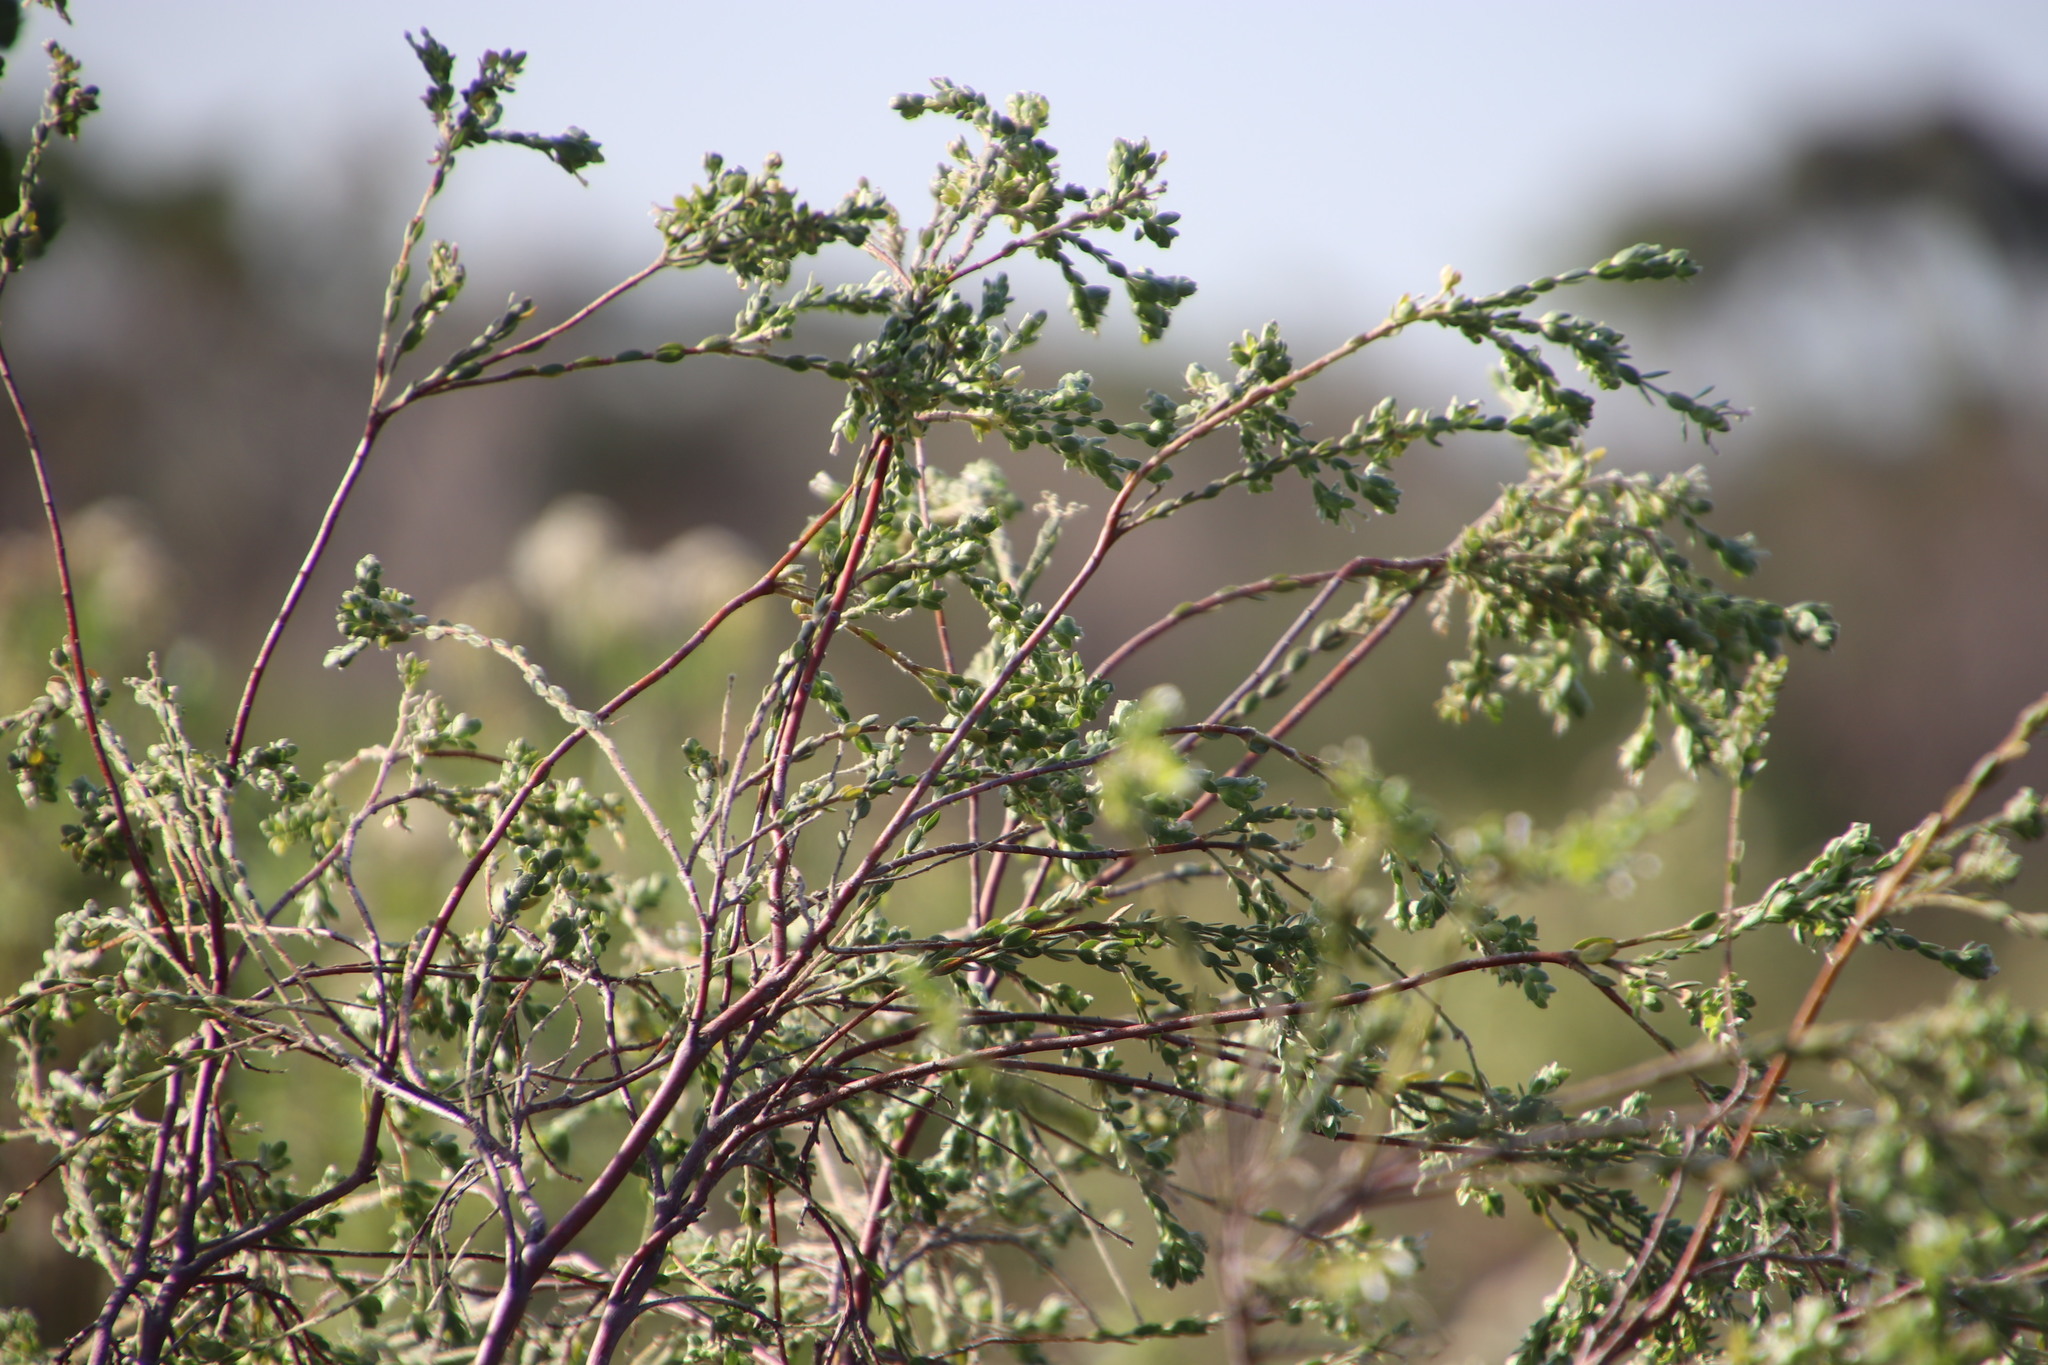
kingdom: Plantae
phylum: Tracheophyta
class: Magnoliopsida
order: Malvales
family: Thymelaeaceae
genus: Gnidia
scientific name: Gnidia sericea
